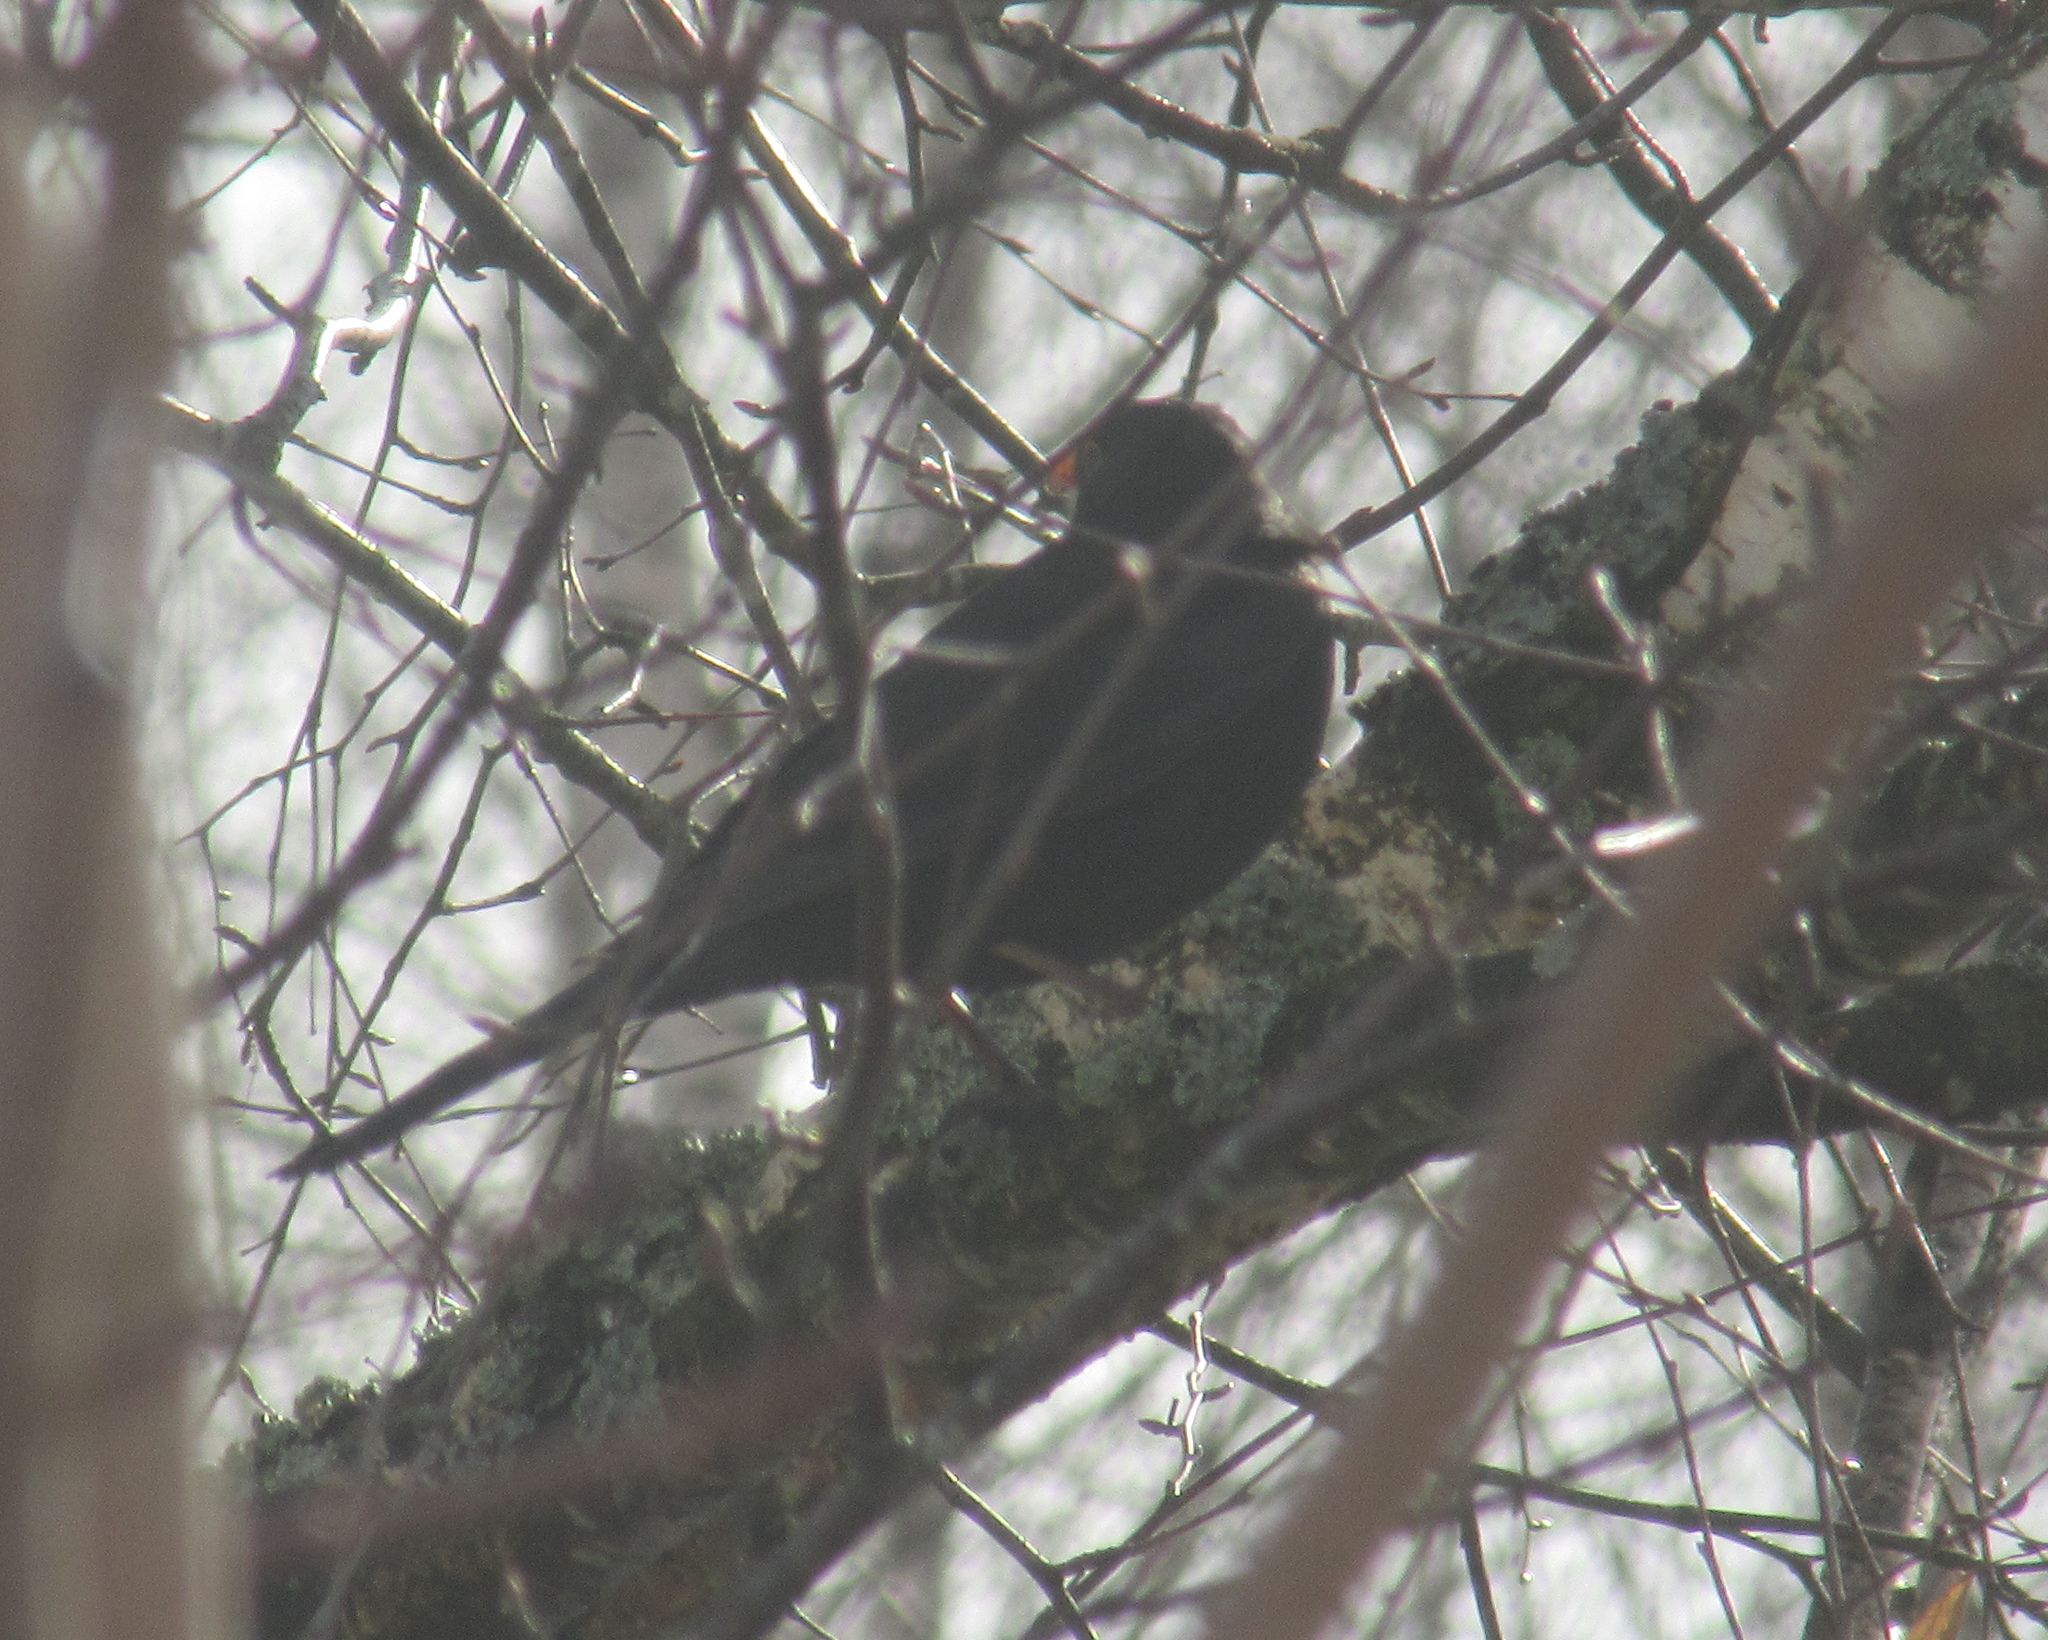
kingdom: Animalia
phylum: Chordata
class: Aves
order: Passeriformes
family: Turdidae
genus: Turdus
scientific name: Turdus merula
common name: Common blackbird
